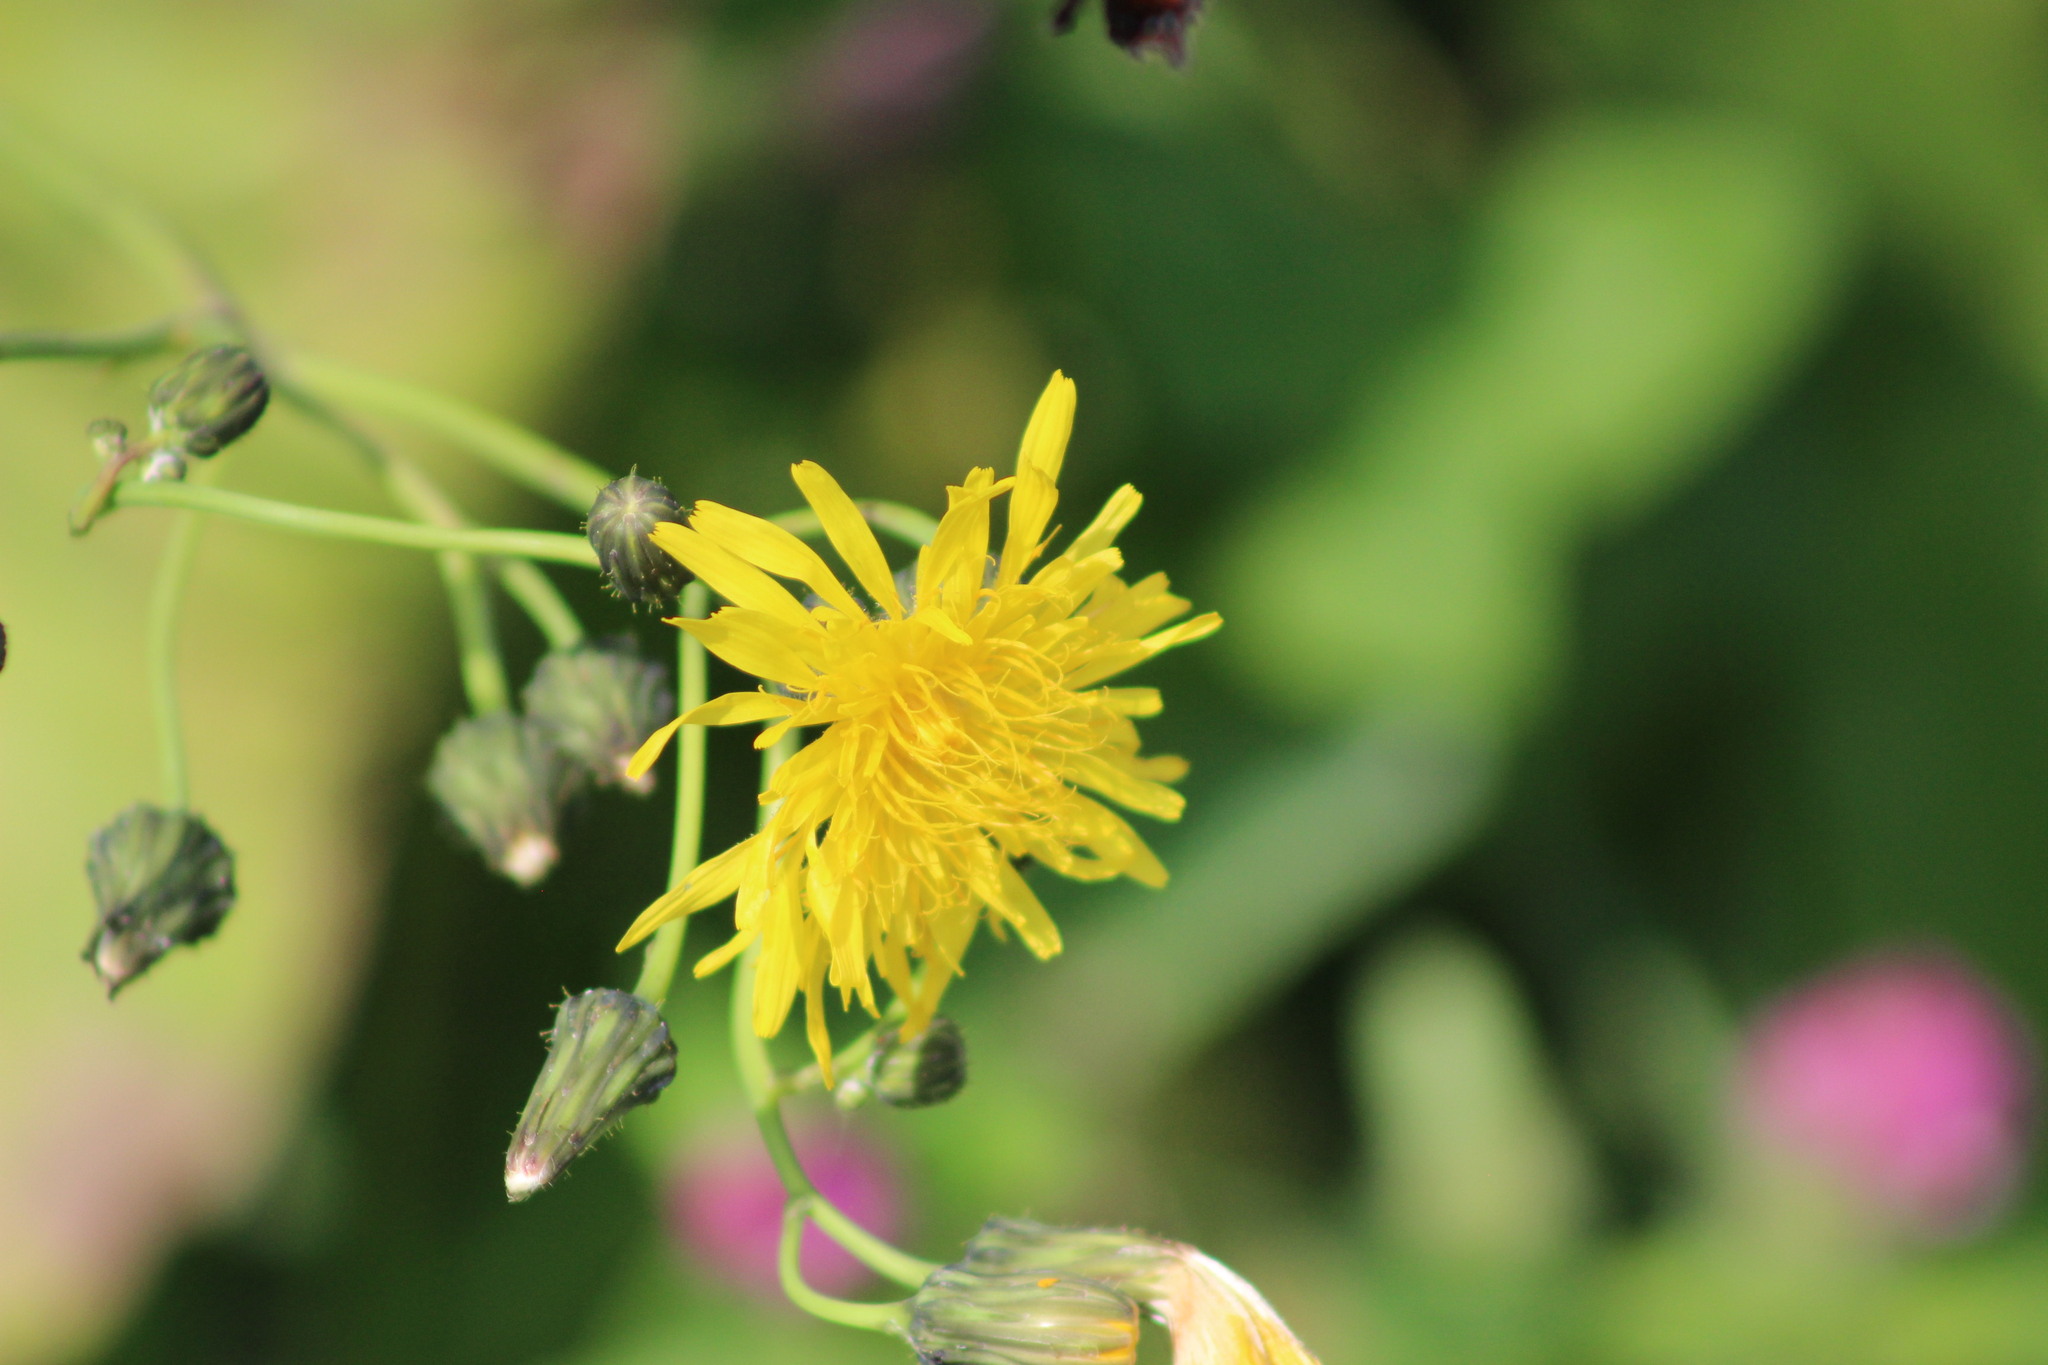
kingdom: Plantae
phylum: Tracheophyta
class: Magnoliopsida
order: Asterales
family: Asteraceae
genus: Sonchus
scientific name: Sonchus arvensis
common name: Perennial sow-thistle
